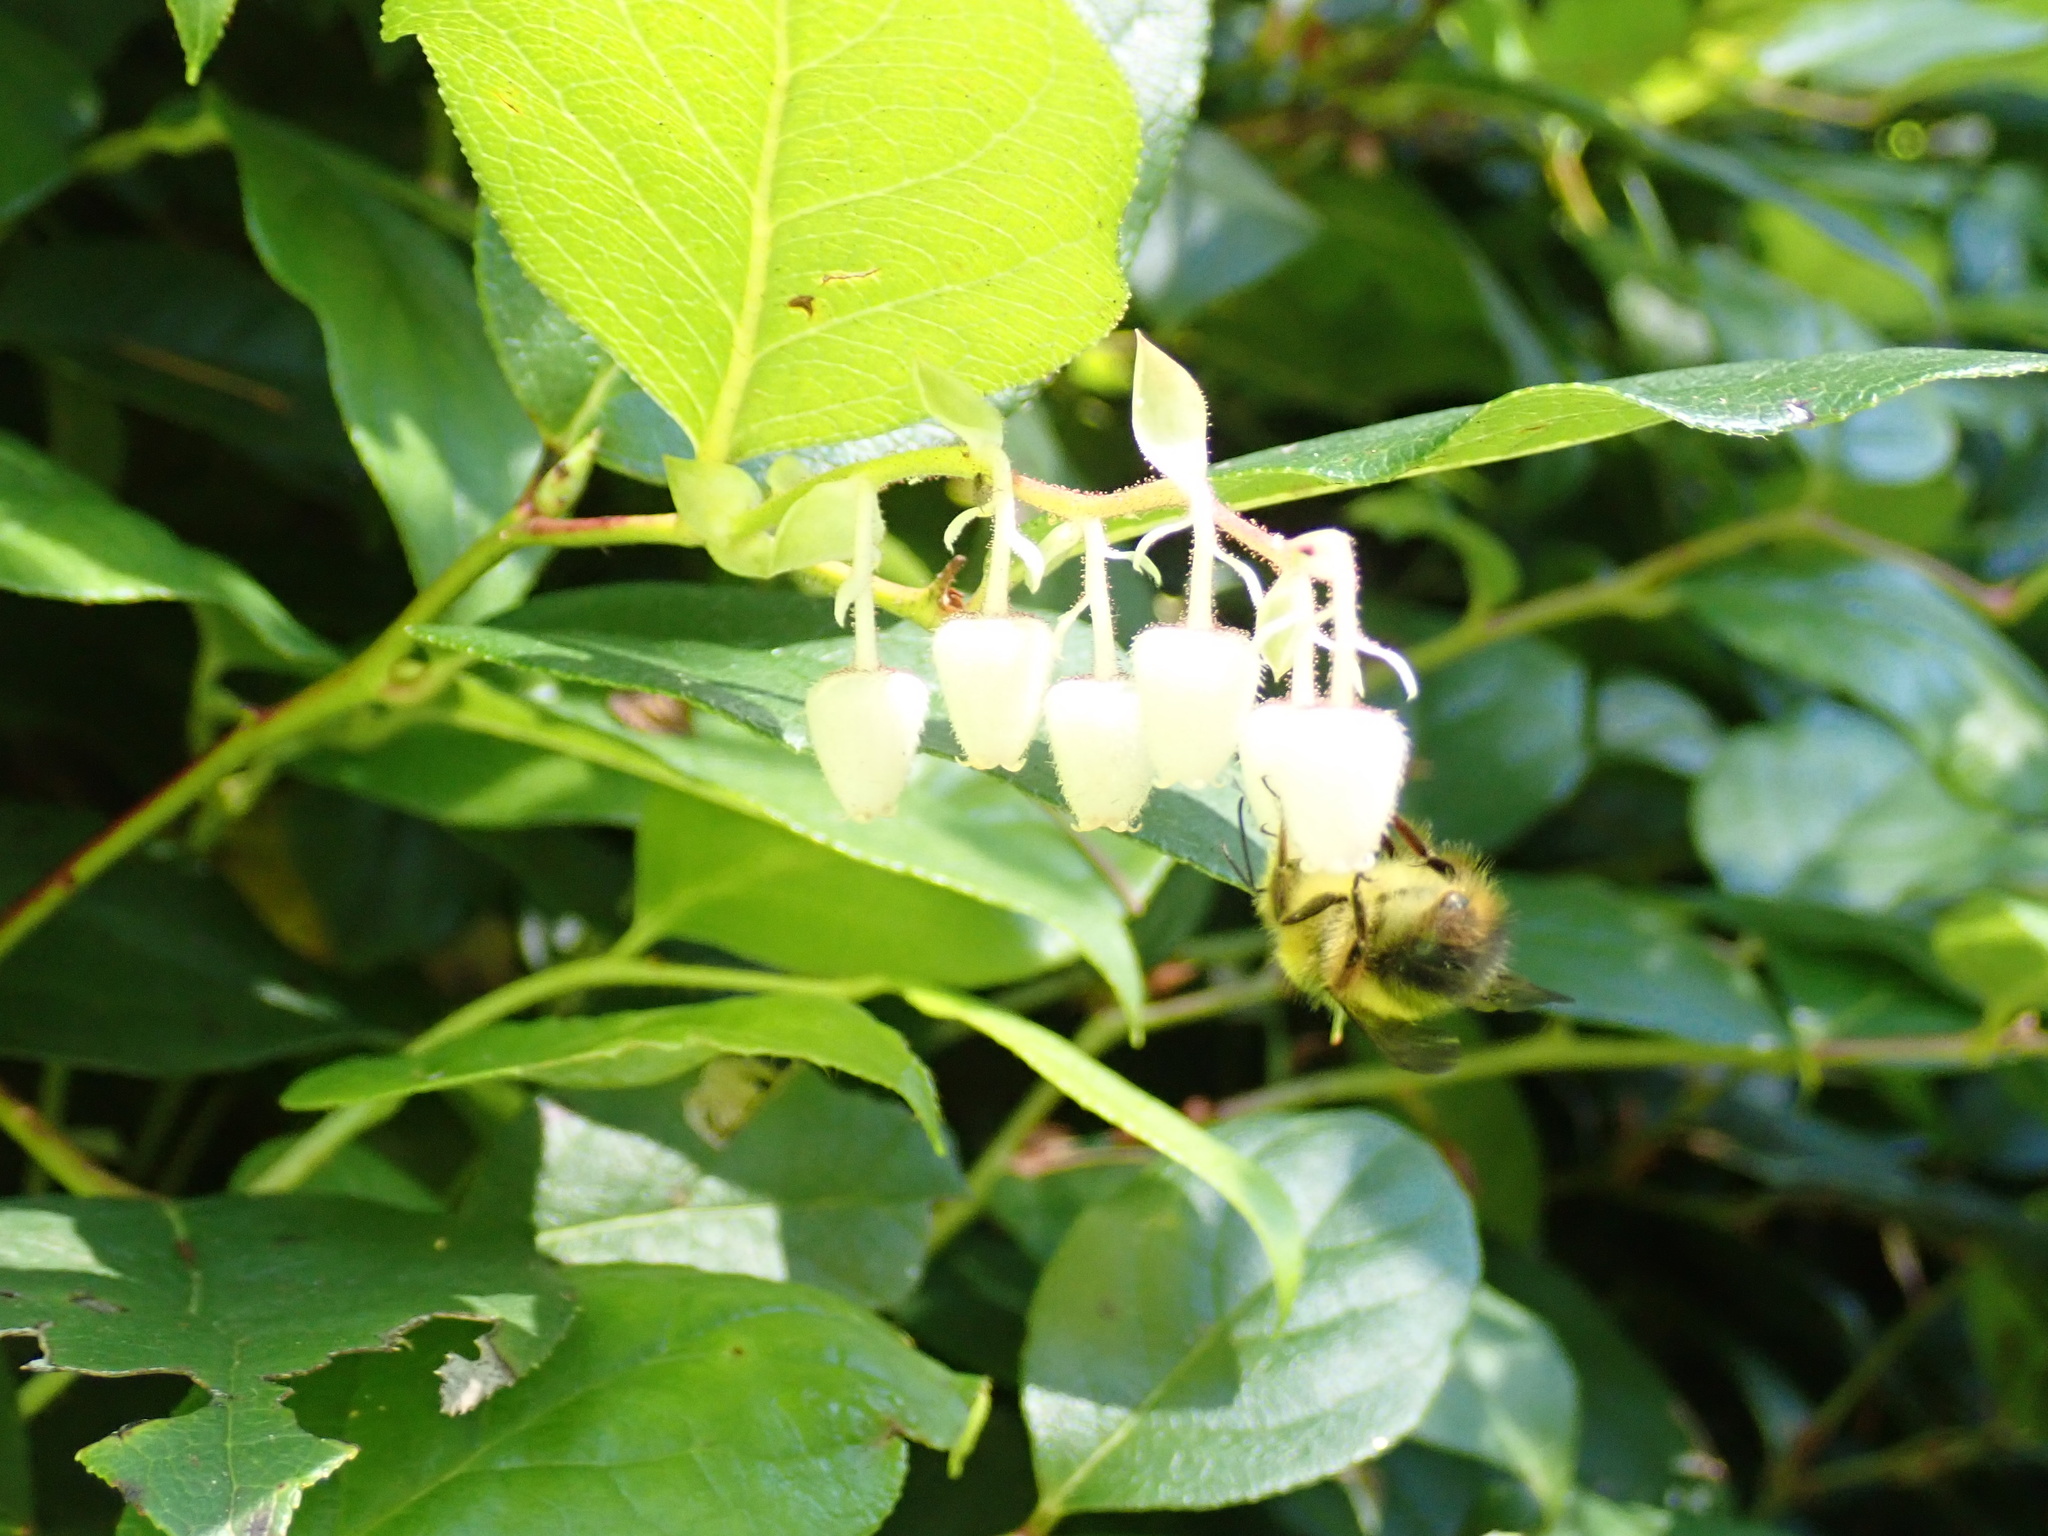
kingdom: Plantae
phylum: Tracheophyta
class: Magnoliopsida
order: Ericales
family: Ericaceae
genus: Gaultheria
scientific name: Gaultheria shallon
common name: Shallon
